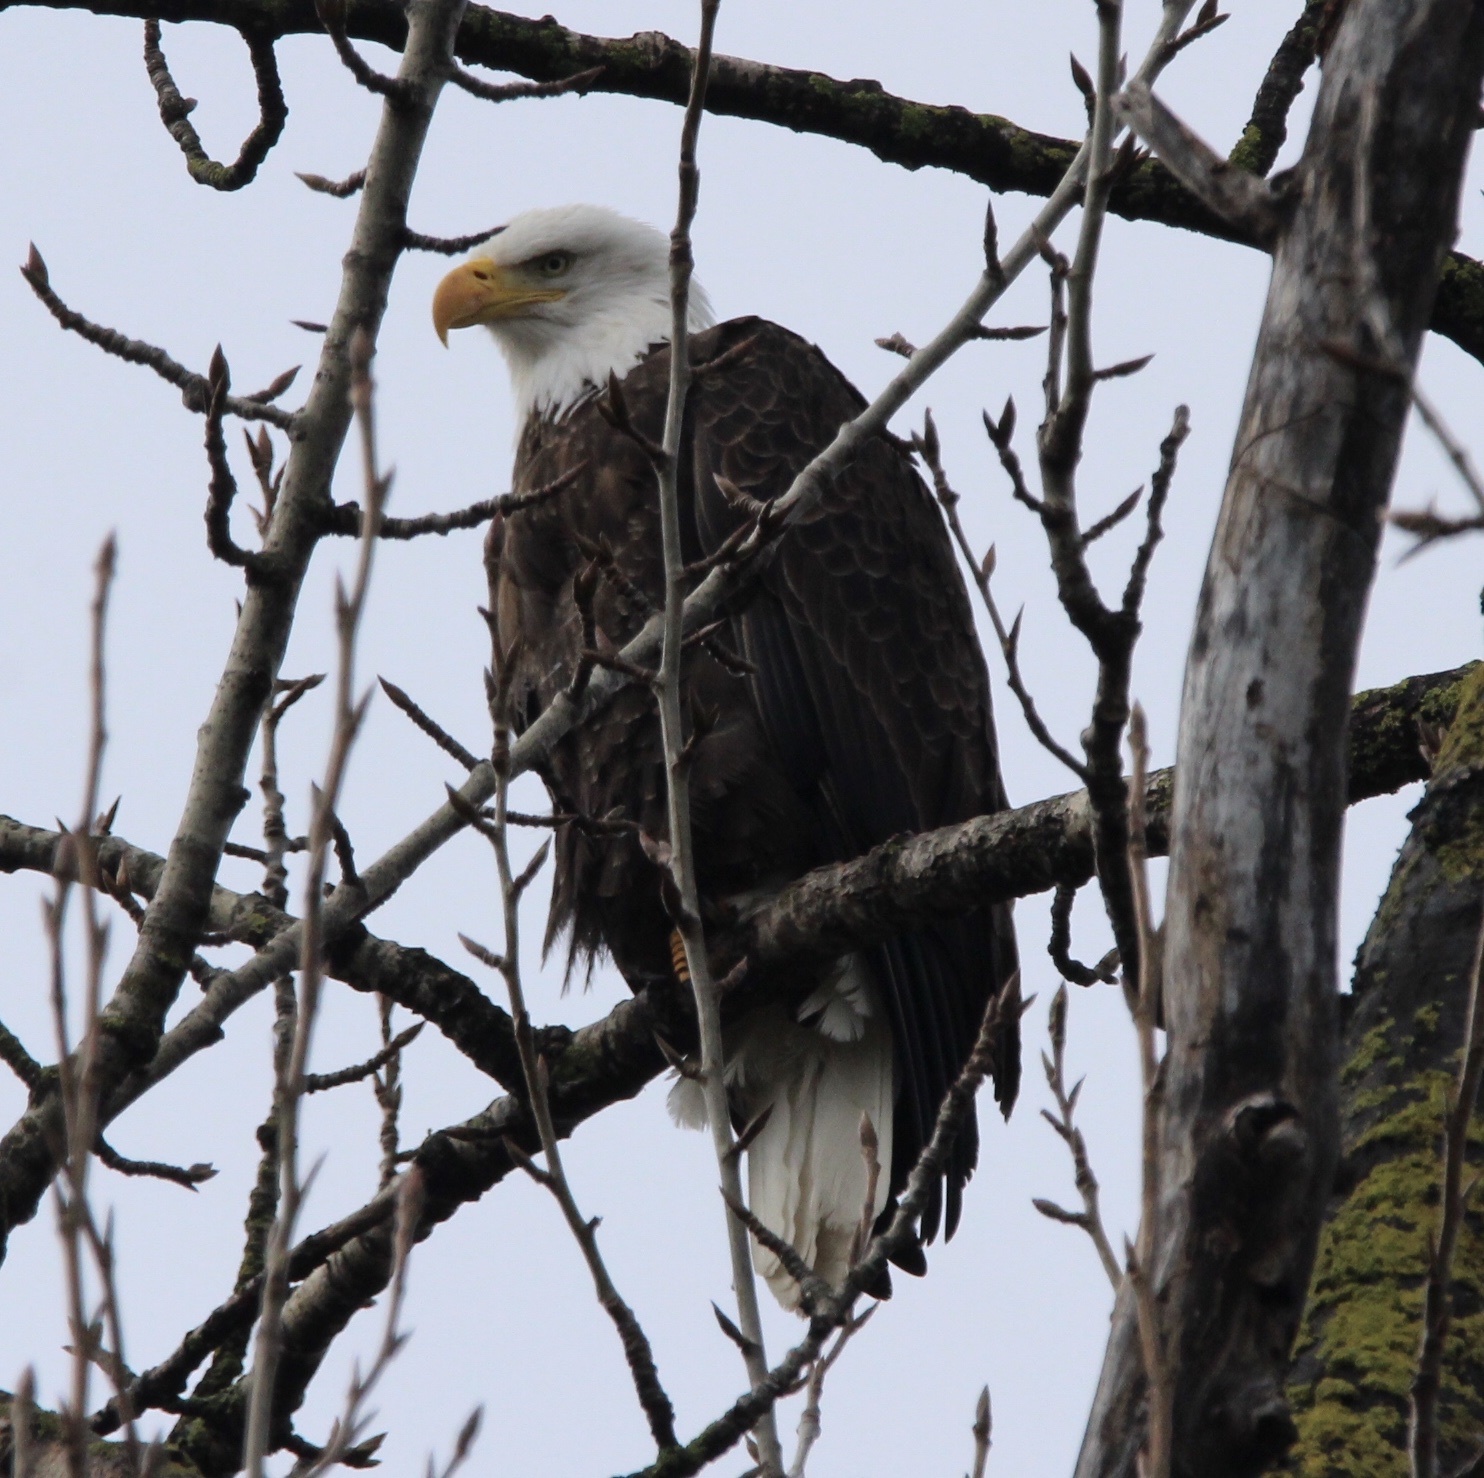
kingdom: Animalia
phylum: Chordata
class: Aves
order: Accipitriformes
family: Accipitridae
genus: Haliaeetus
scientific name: Haliaeetus leucocephalus
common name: Bald eagle
